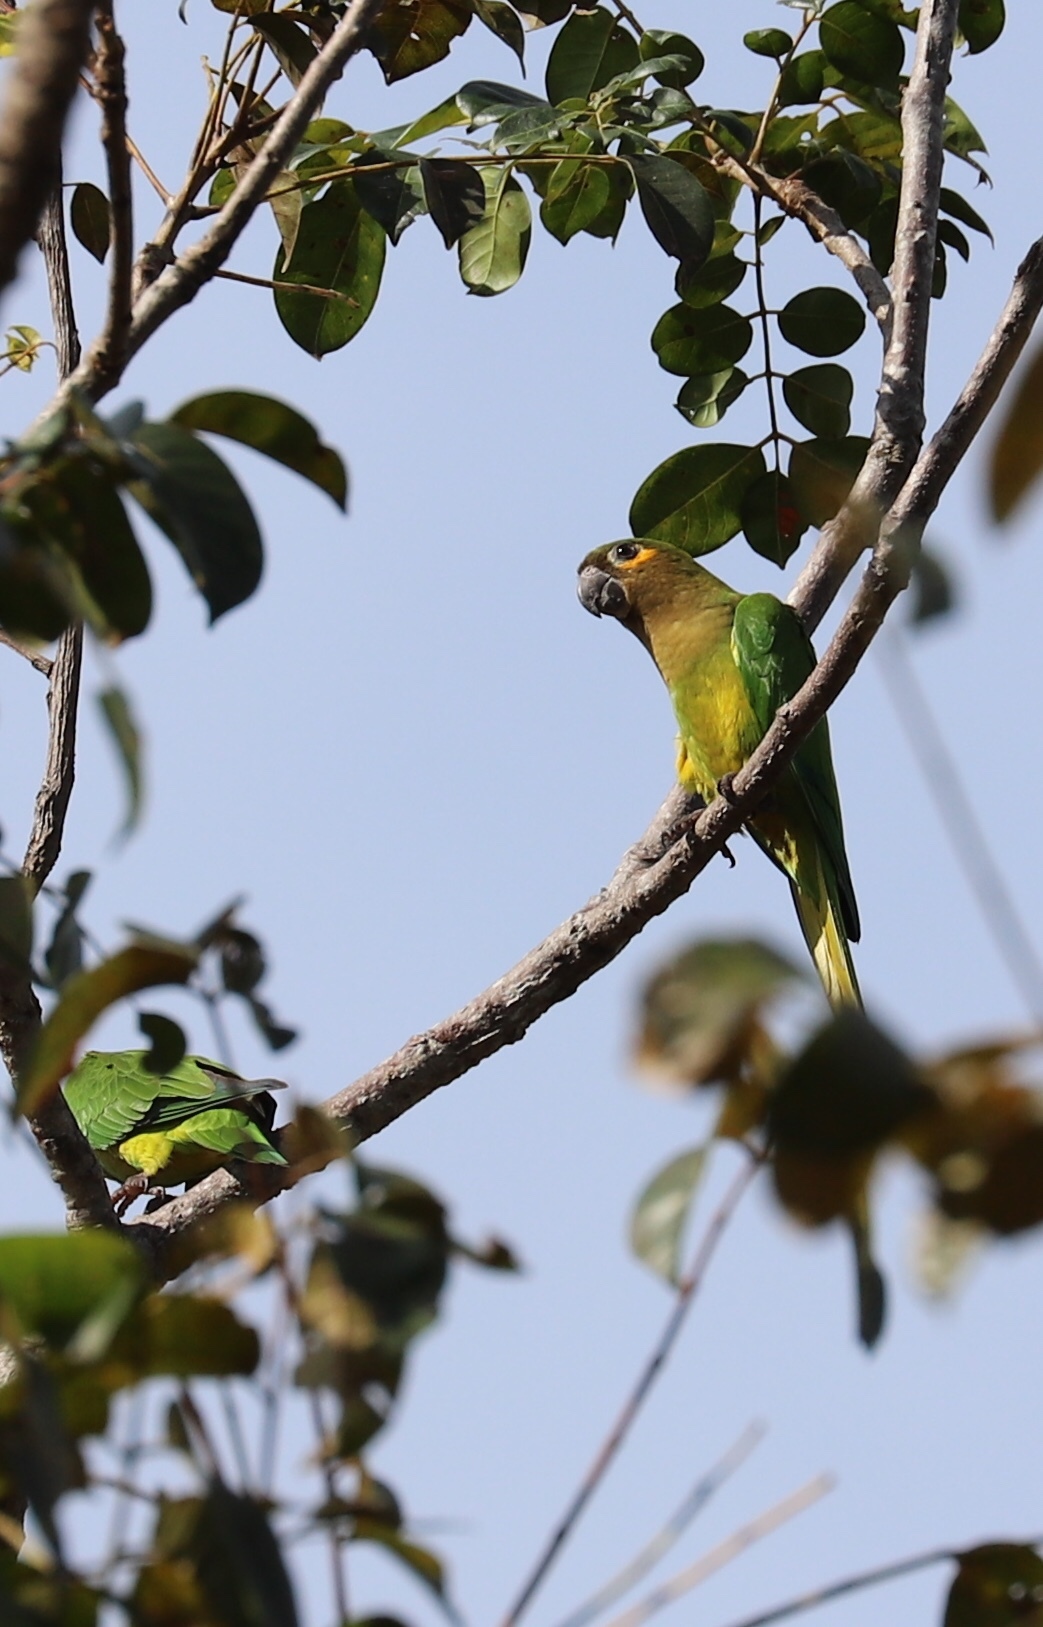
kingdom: Animalia
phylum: Chordata
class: Aves
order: Psittaciformes
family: Psittacidae
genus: Aratinga
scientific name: Aratinga pertinax
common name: Brown-throated parakeet
